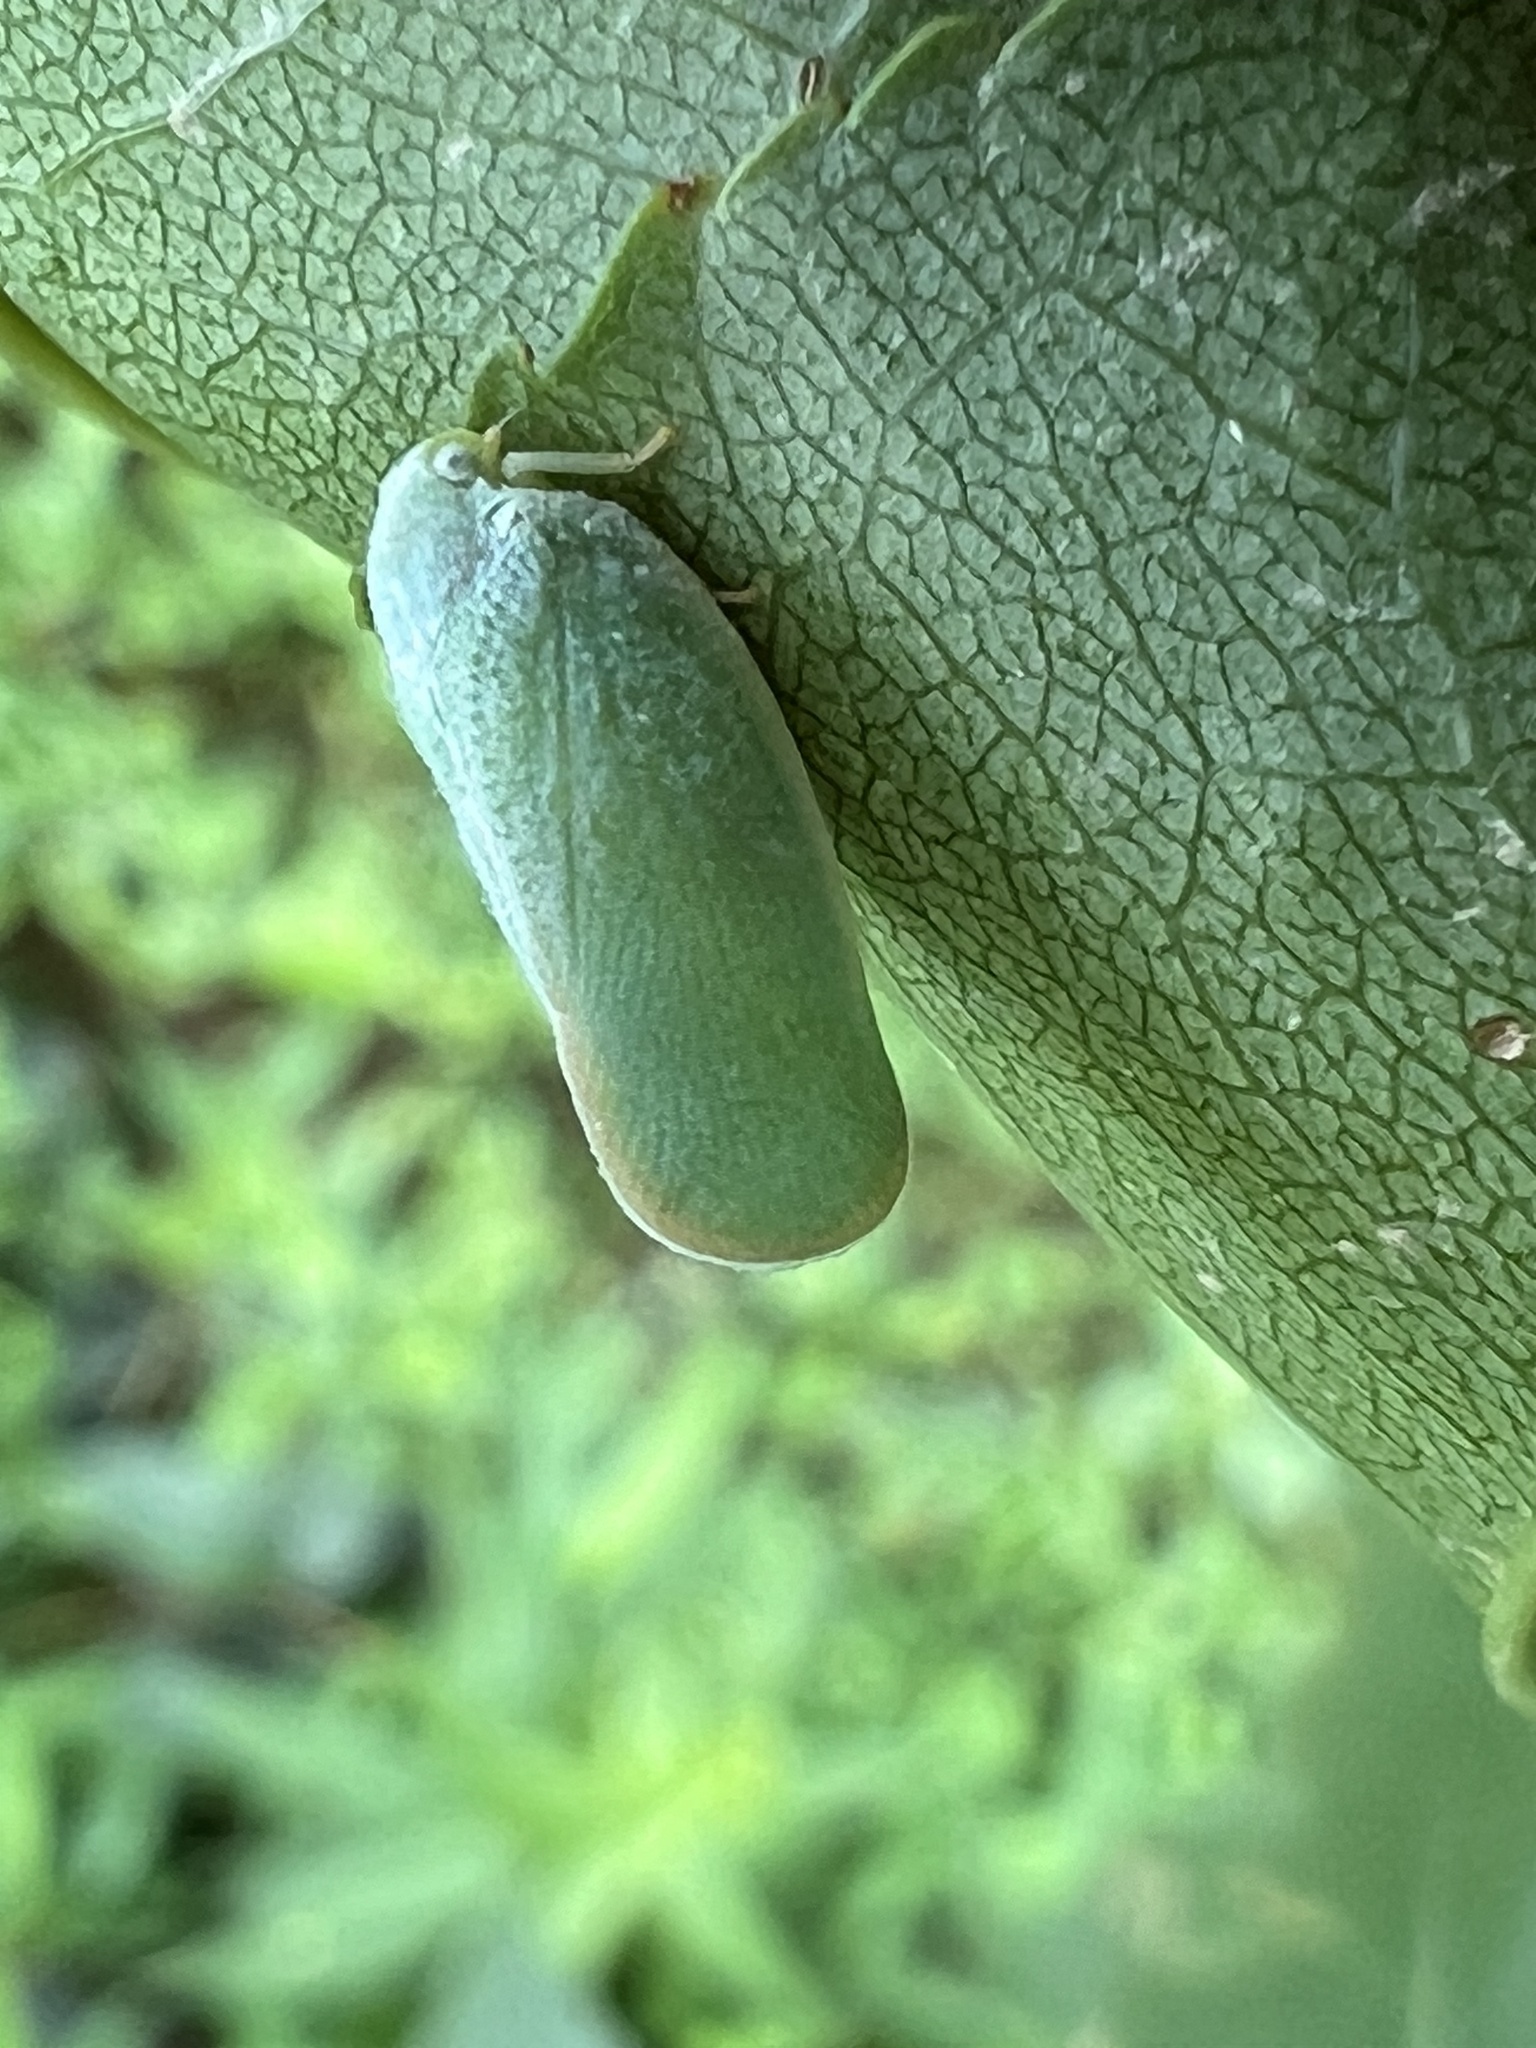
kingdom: Animalia
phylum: Arthropoda
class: Insecta
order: Hemiptera
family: Flatidae
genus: Ormenoides
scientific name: Ormenoides venusta
